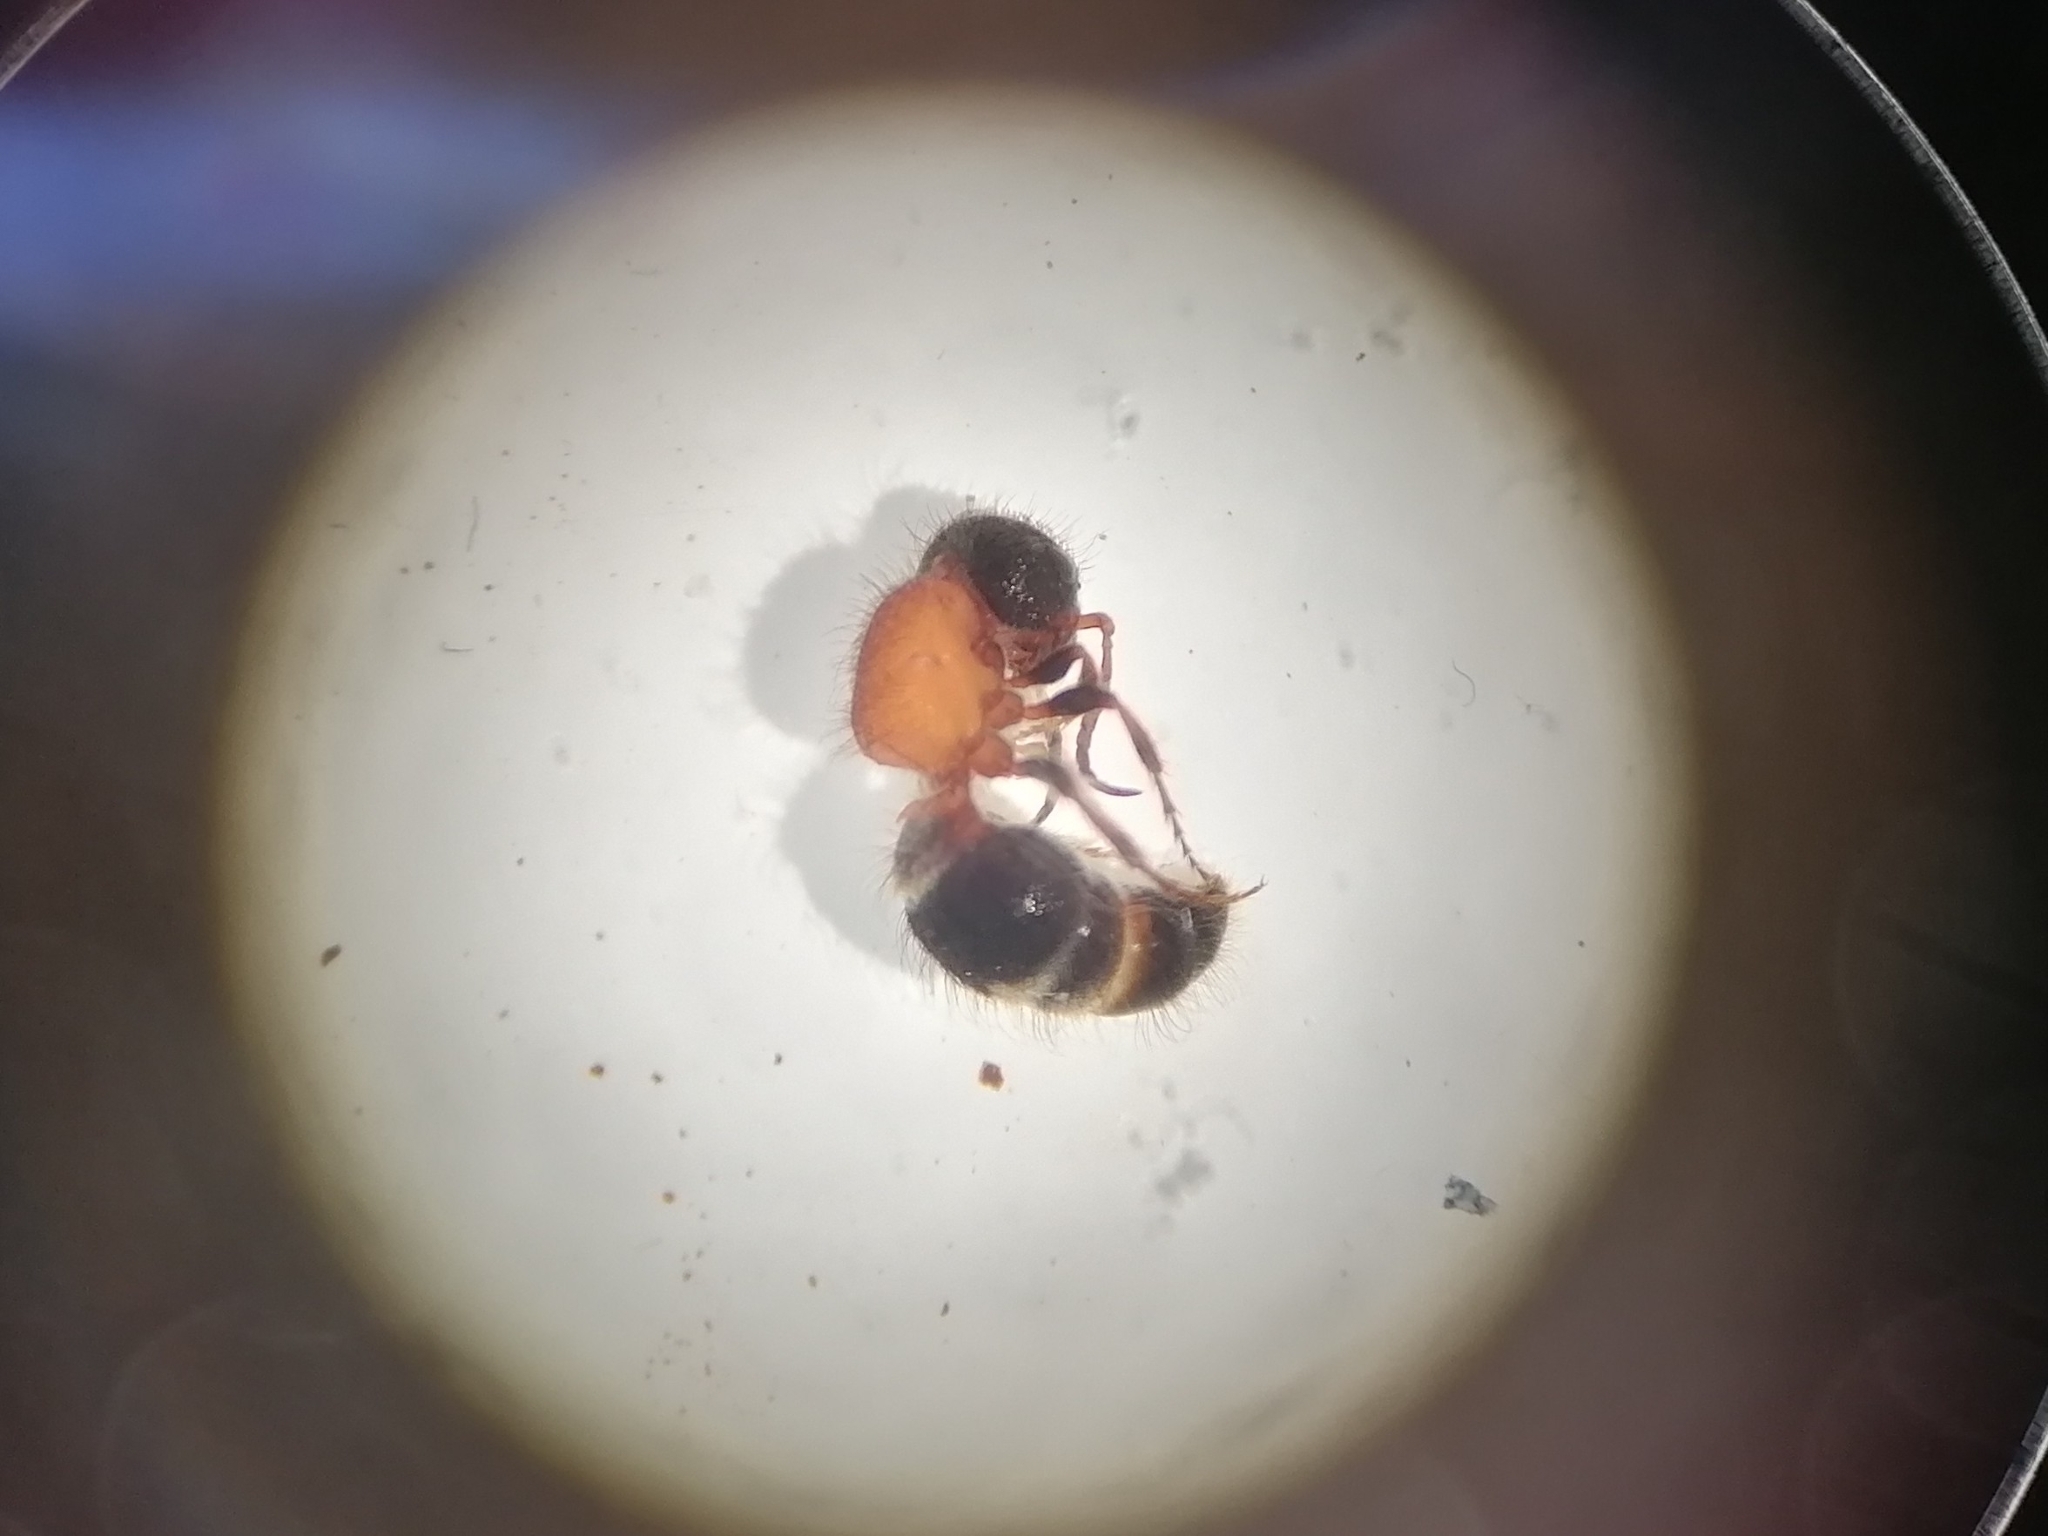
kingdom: Animalia
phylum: Arthropoda
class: Insecta
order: Hymenoptera
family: Mutillidae
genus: Myrmilla
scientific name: Myrmilla calva
